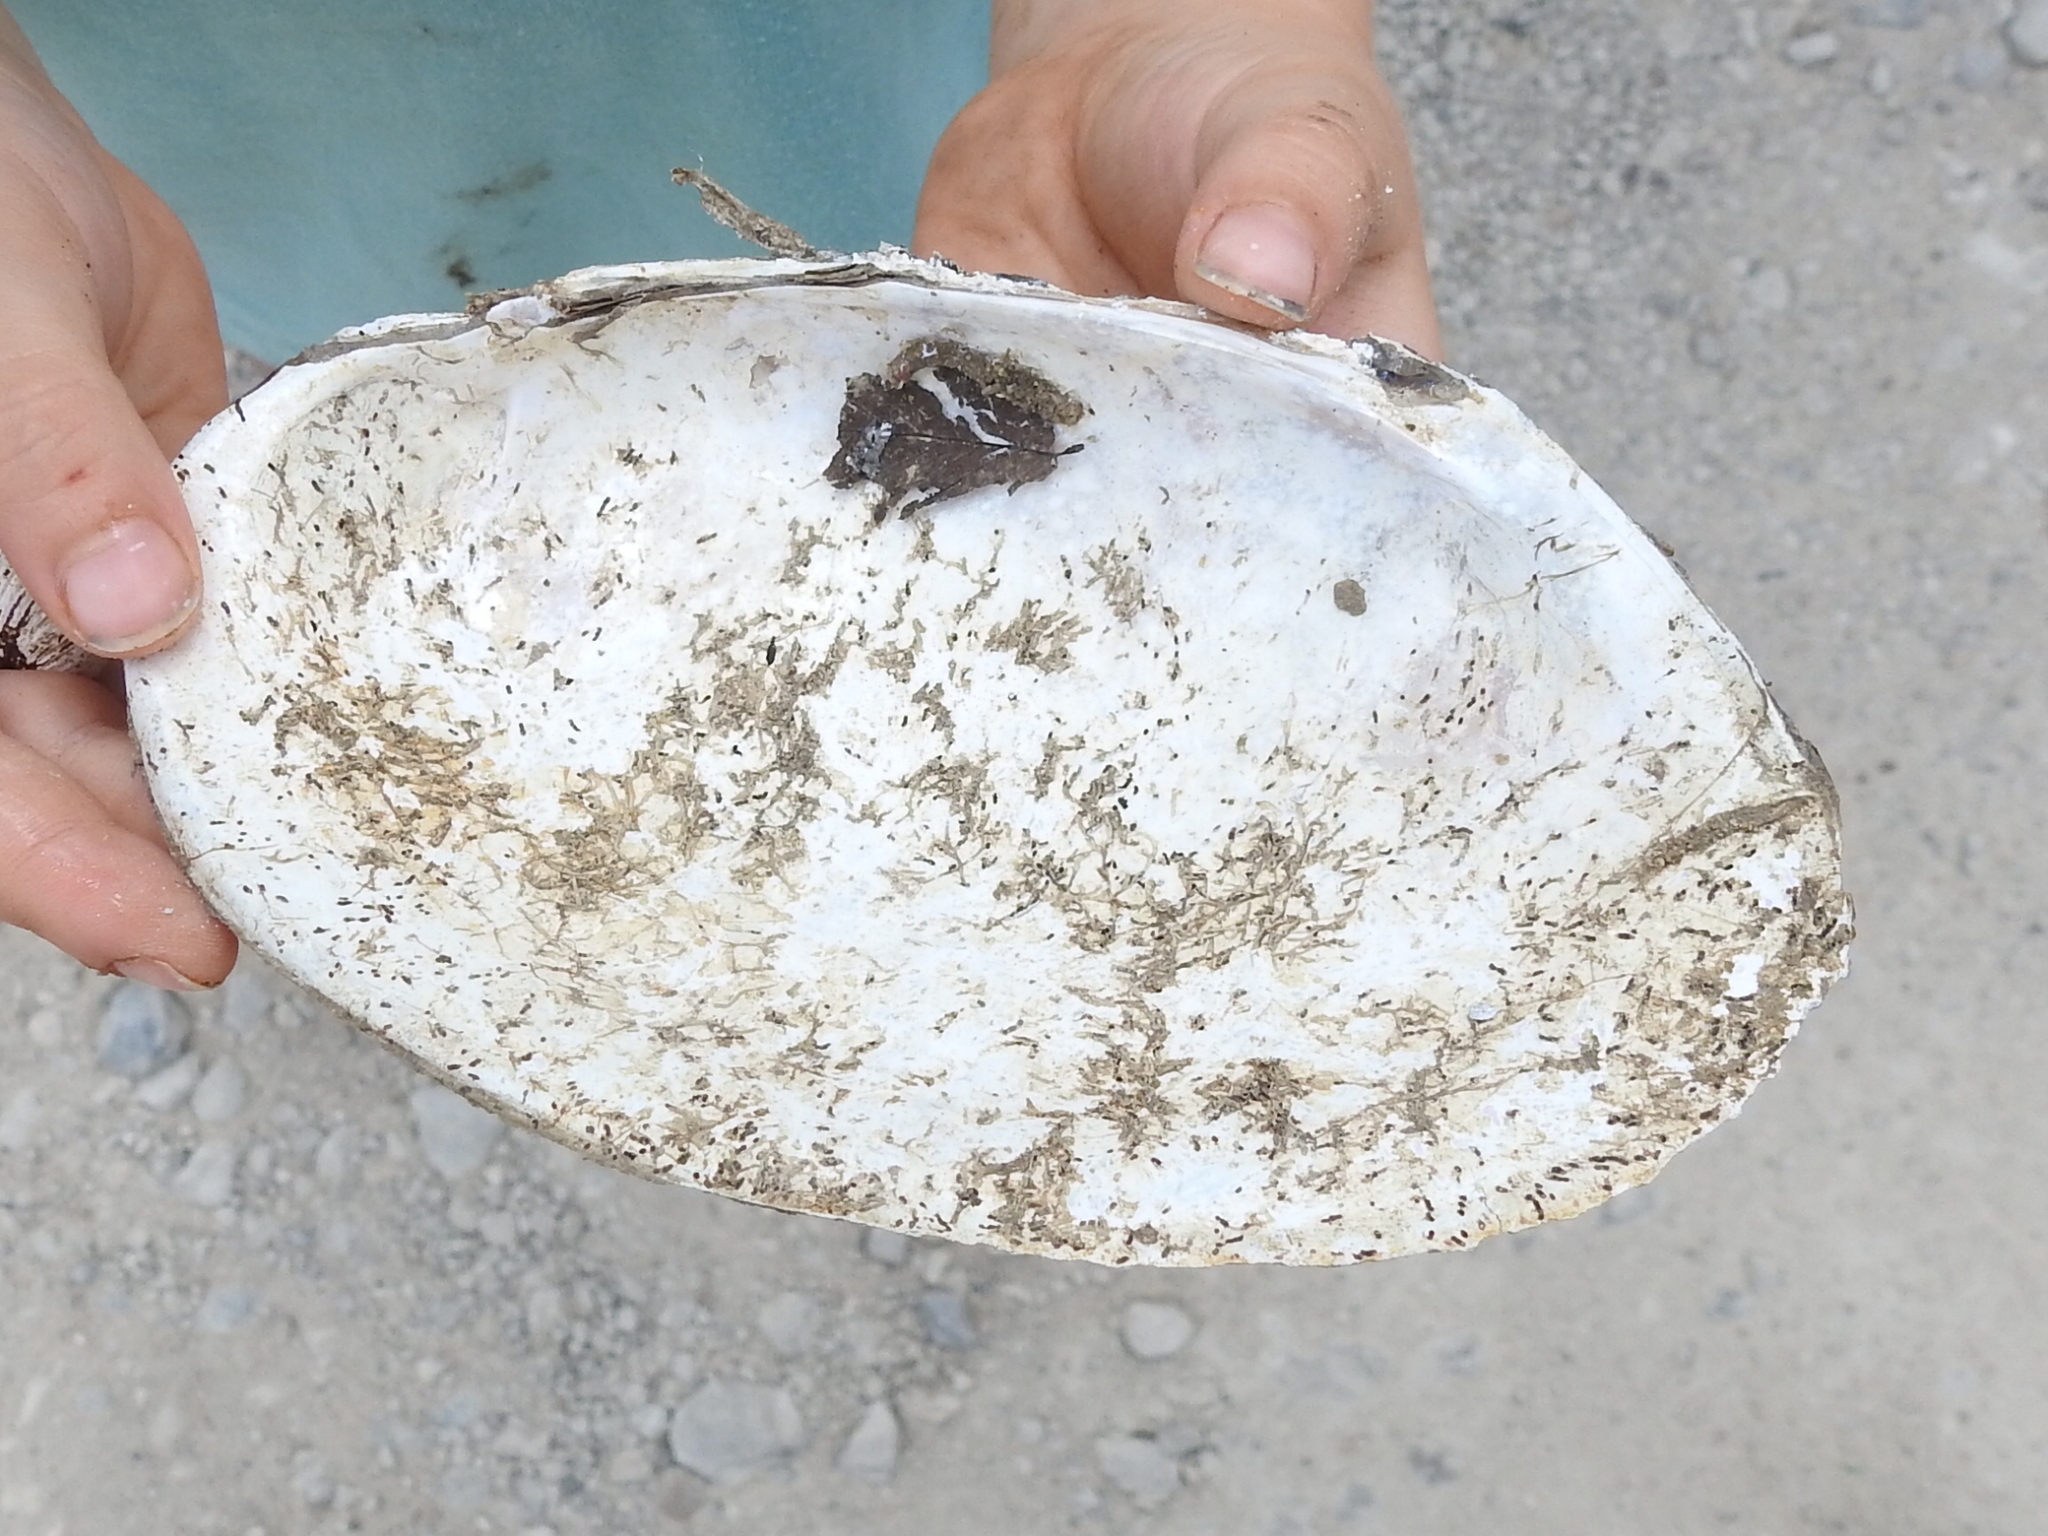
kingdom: Animalia
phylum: Mollusca
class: Bivalvia
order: Unionida
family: Unionidae
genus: Potamilus
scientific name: Potamilus amphichaenus
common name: Texas heelsplitter
